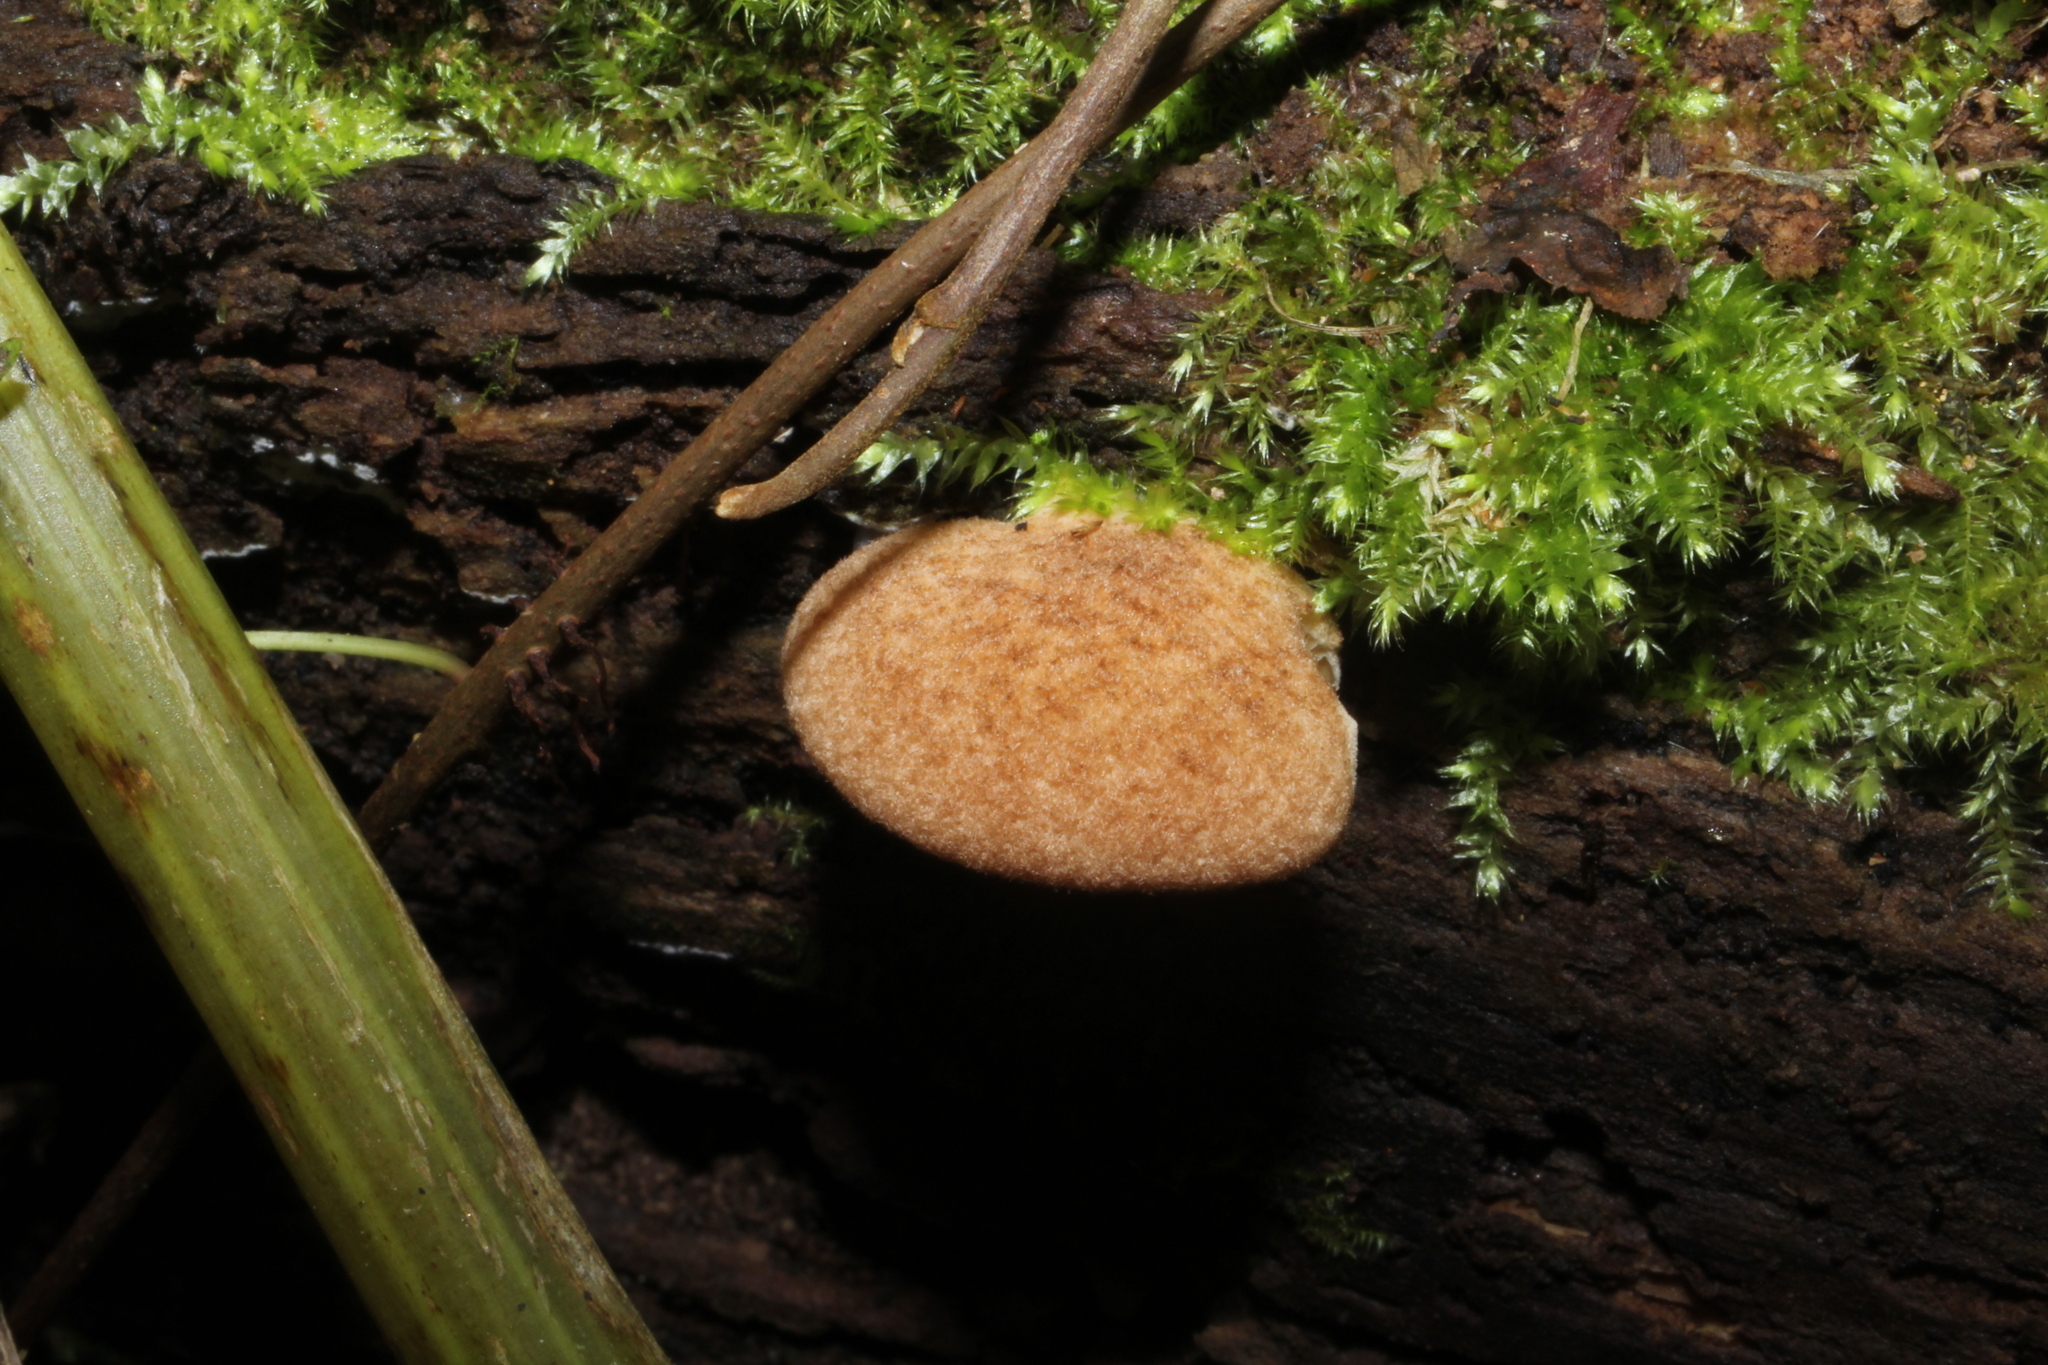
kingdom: Fungi
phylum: Basidiomycota
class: Agaricomycetes
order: Agaricales
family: Crepidotaceae
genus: Crepidotus
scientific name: Crepidotus crocophyllus
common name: Saffron oysterling
